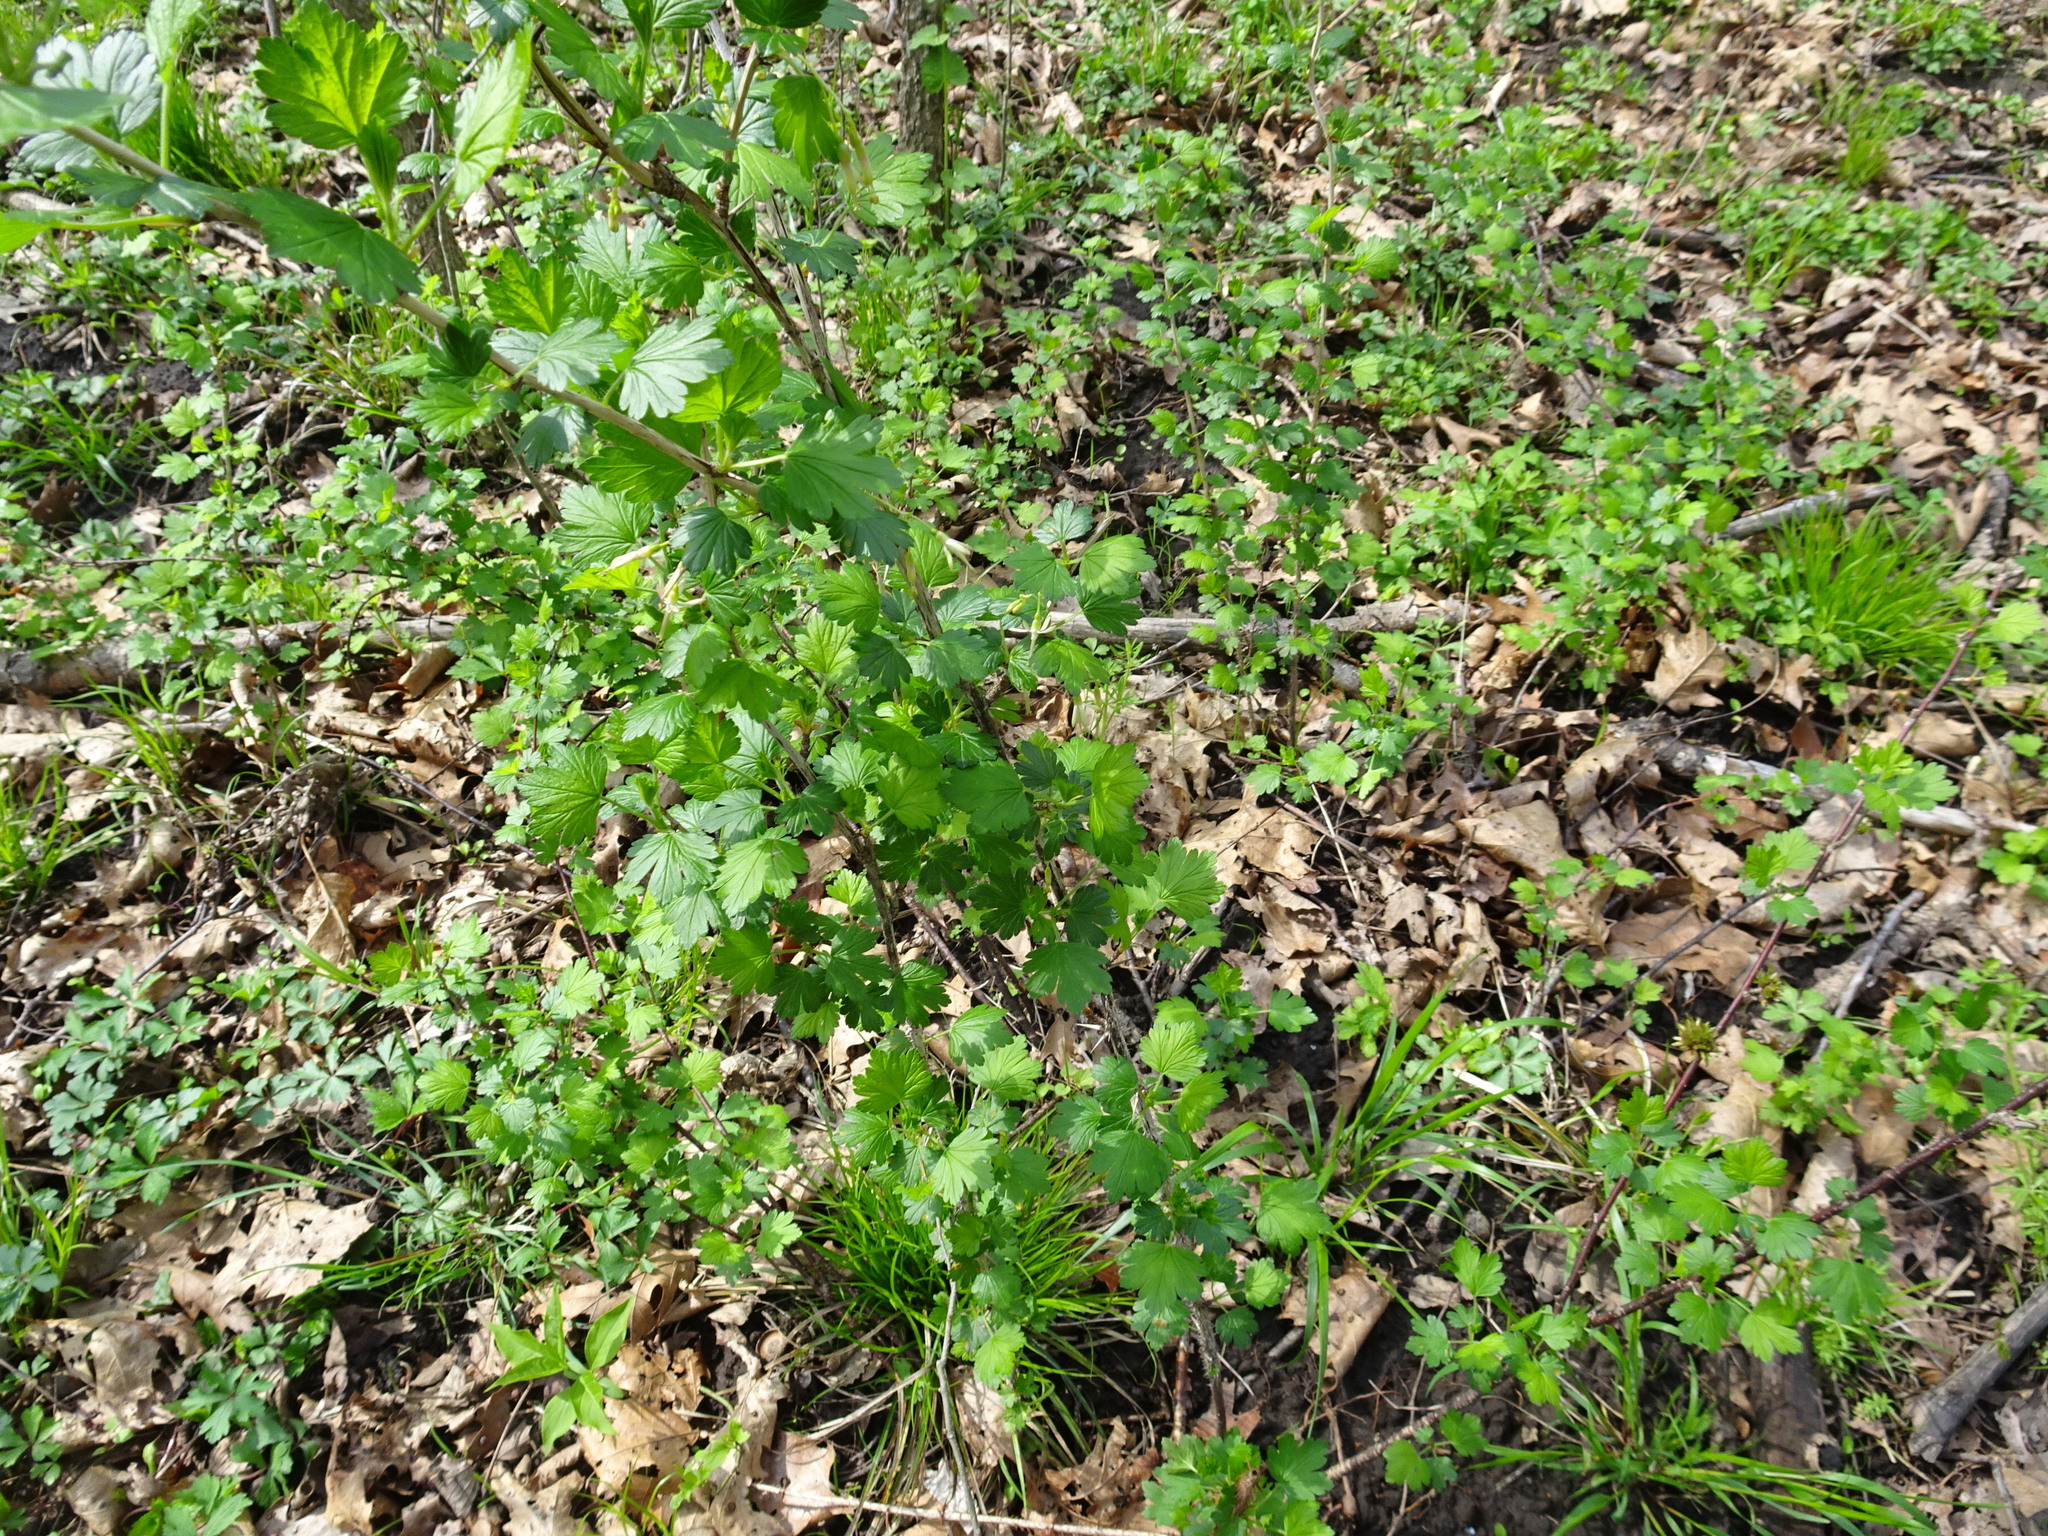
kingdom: Plantae
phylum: Tracheophyta
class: Magnoliopsida
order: Saxifragales
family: Grossulariaceae
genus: Ribes
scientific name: Ribes missouriense
